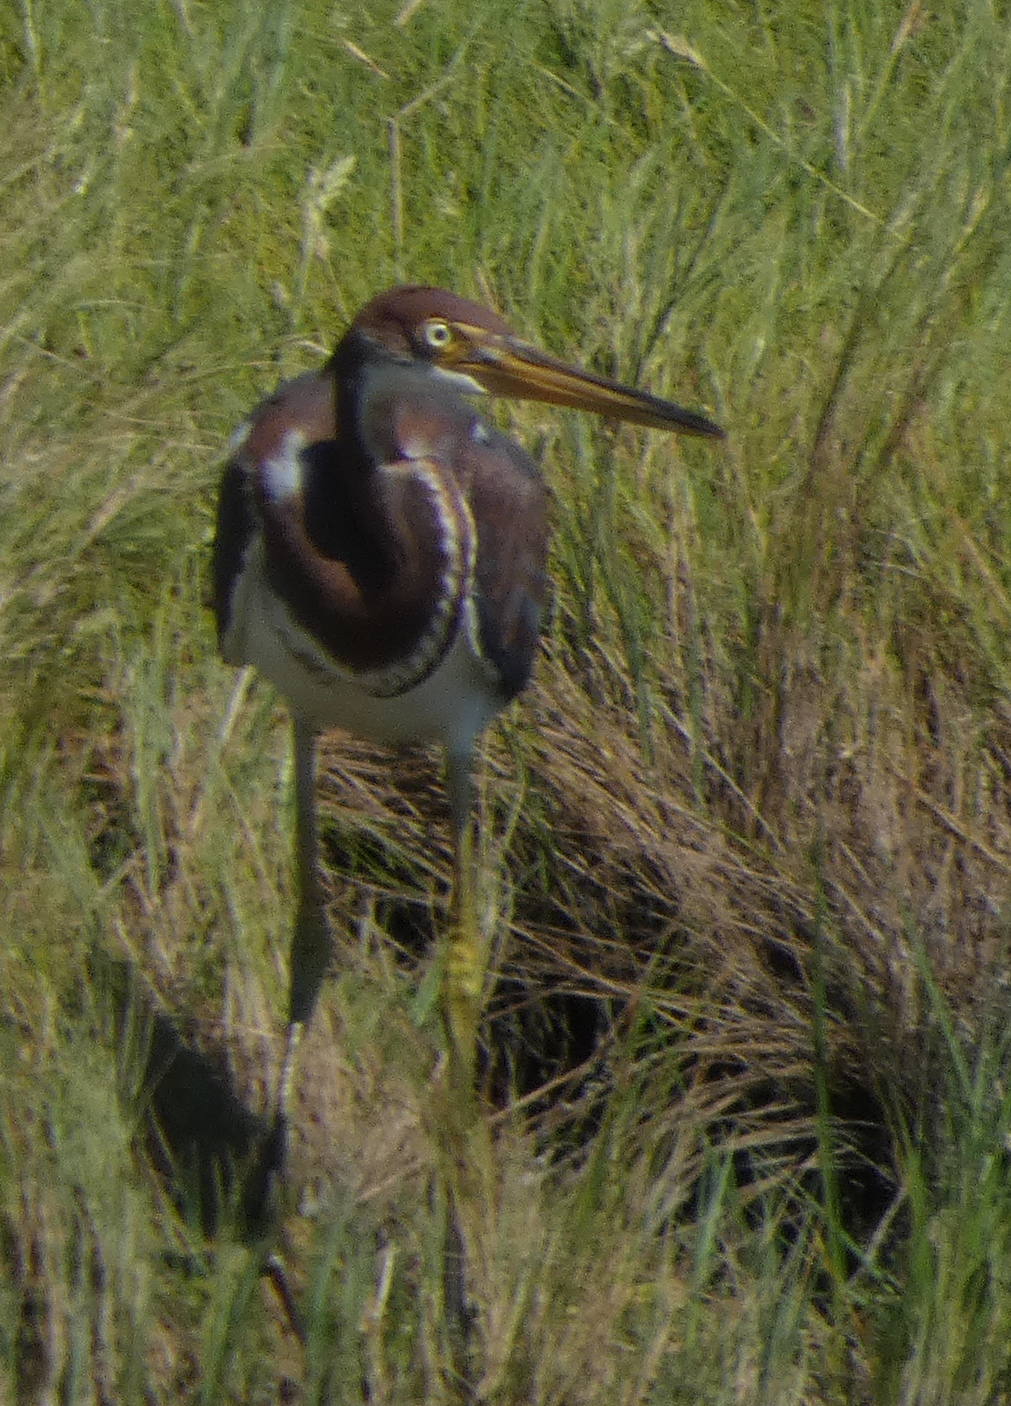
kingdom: Animalia
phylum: Chordata
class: Aves
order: Pelecaniformes
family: Ardeidae
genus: Egretta
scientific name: Egretta tricolor
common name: Tricolored heron
